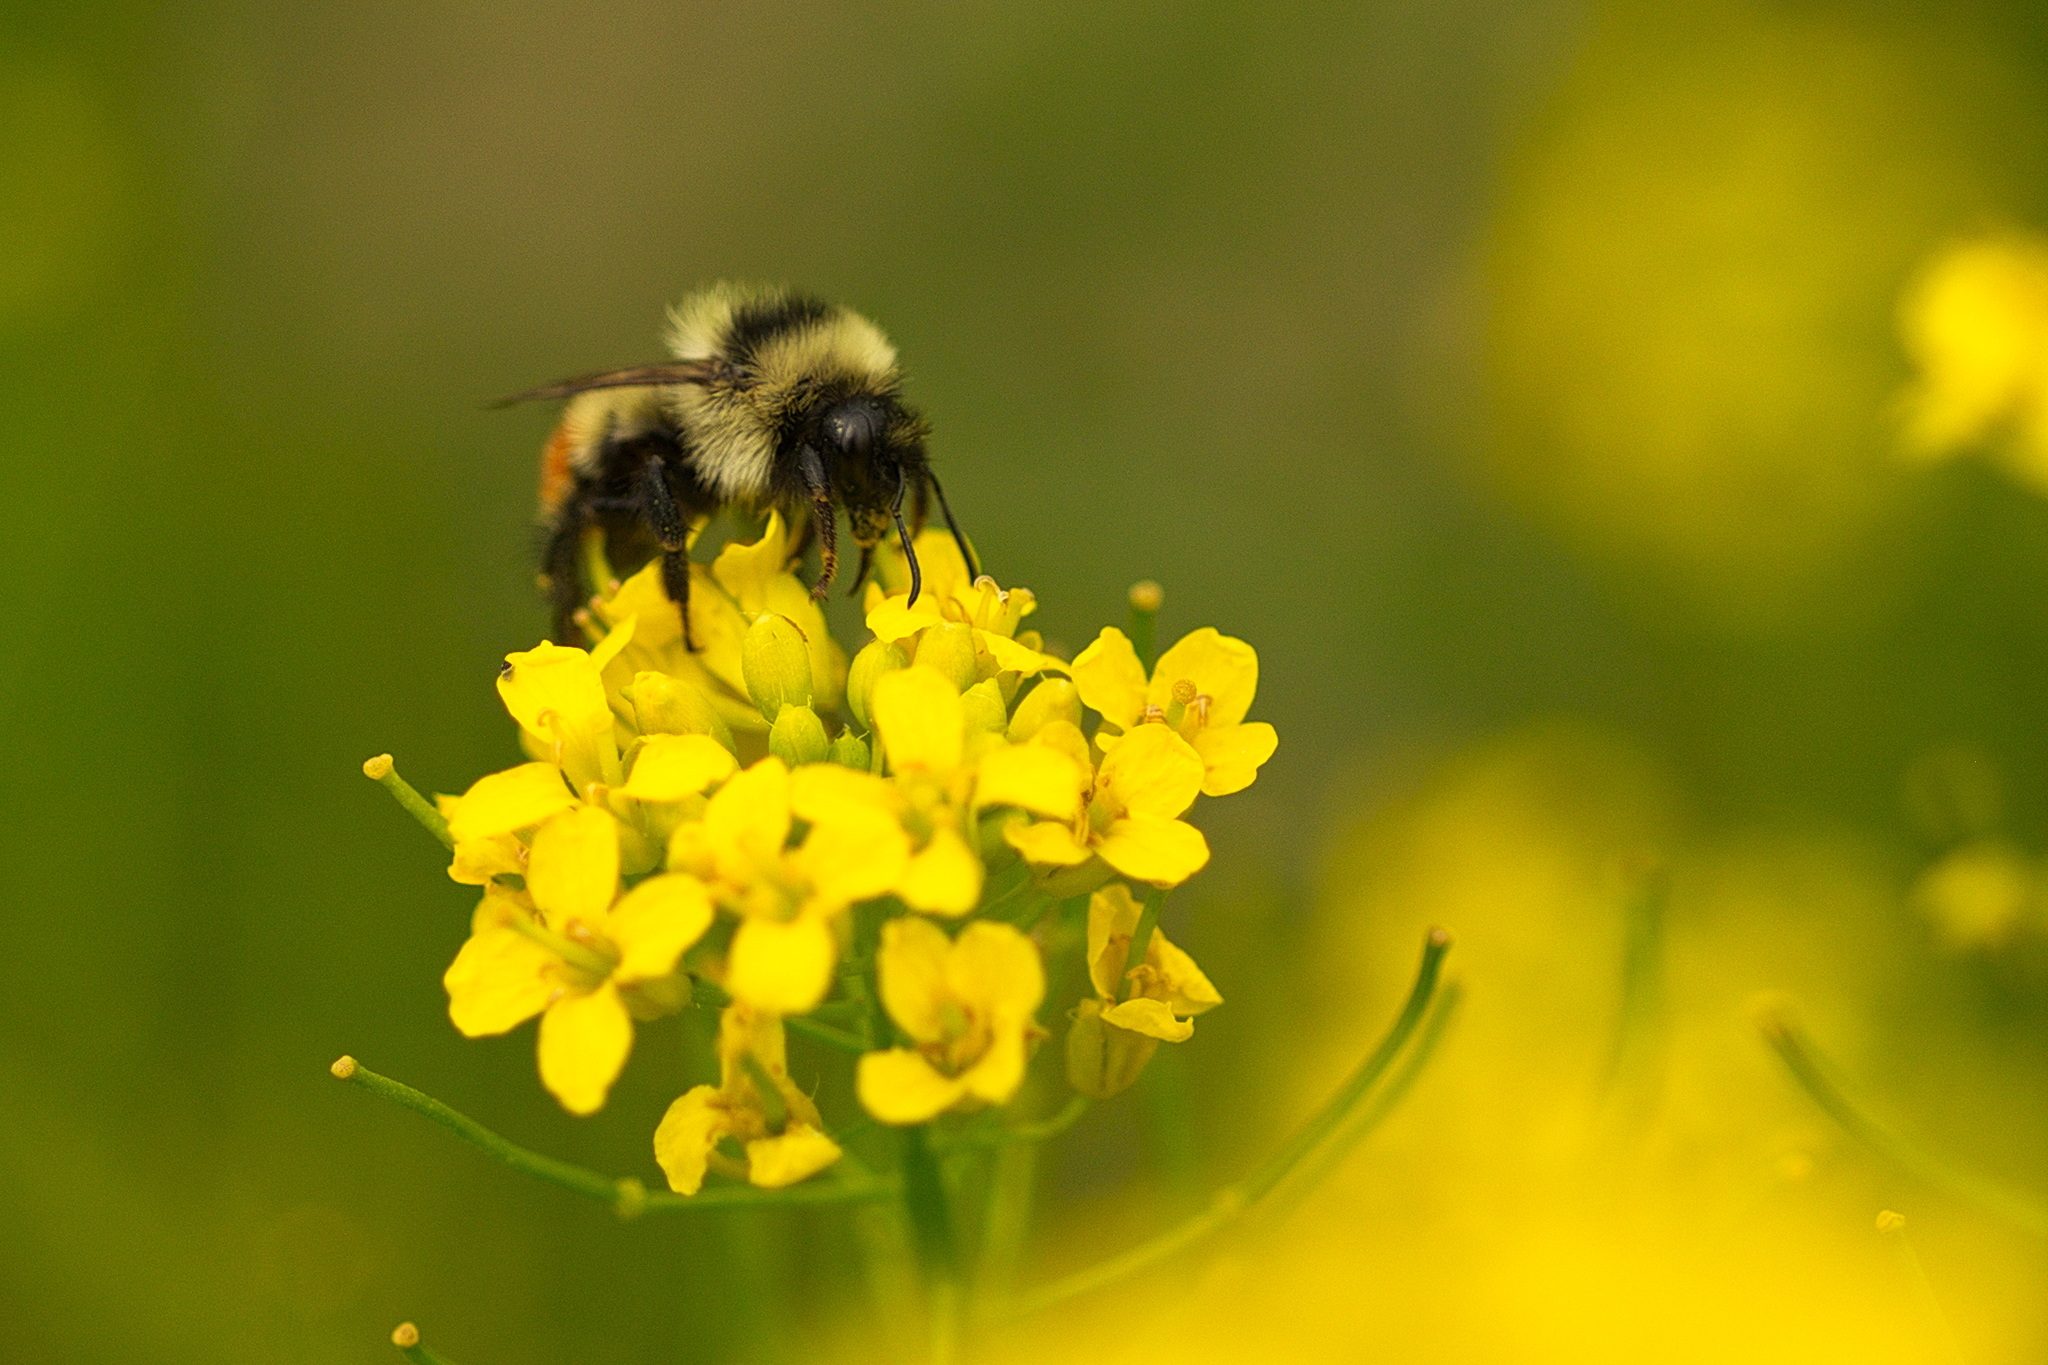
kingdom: Animalia
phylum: Arthropoda
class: Insecta
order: Hymenoptera
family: Apidae
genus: Bombus
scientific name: Bombus rufocinctus
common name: Red-belted bumble bee
